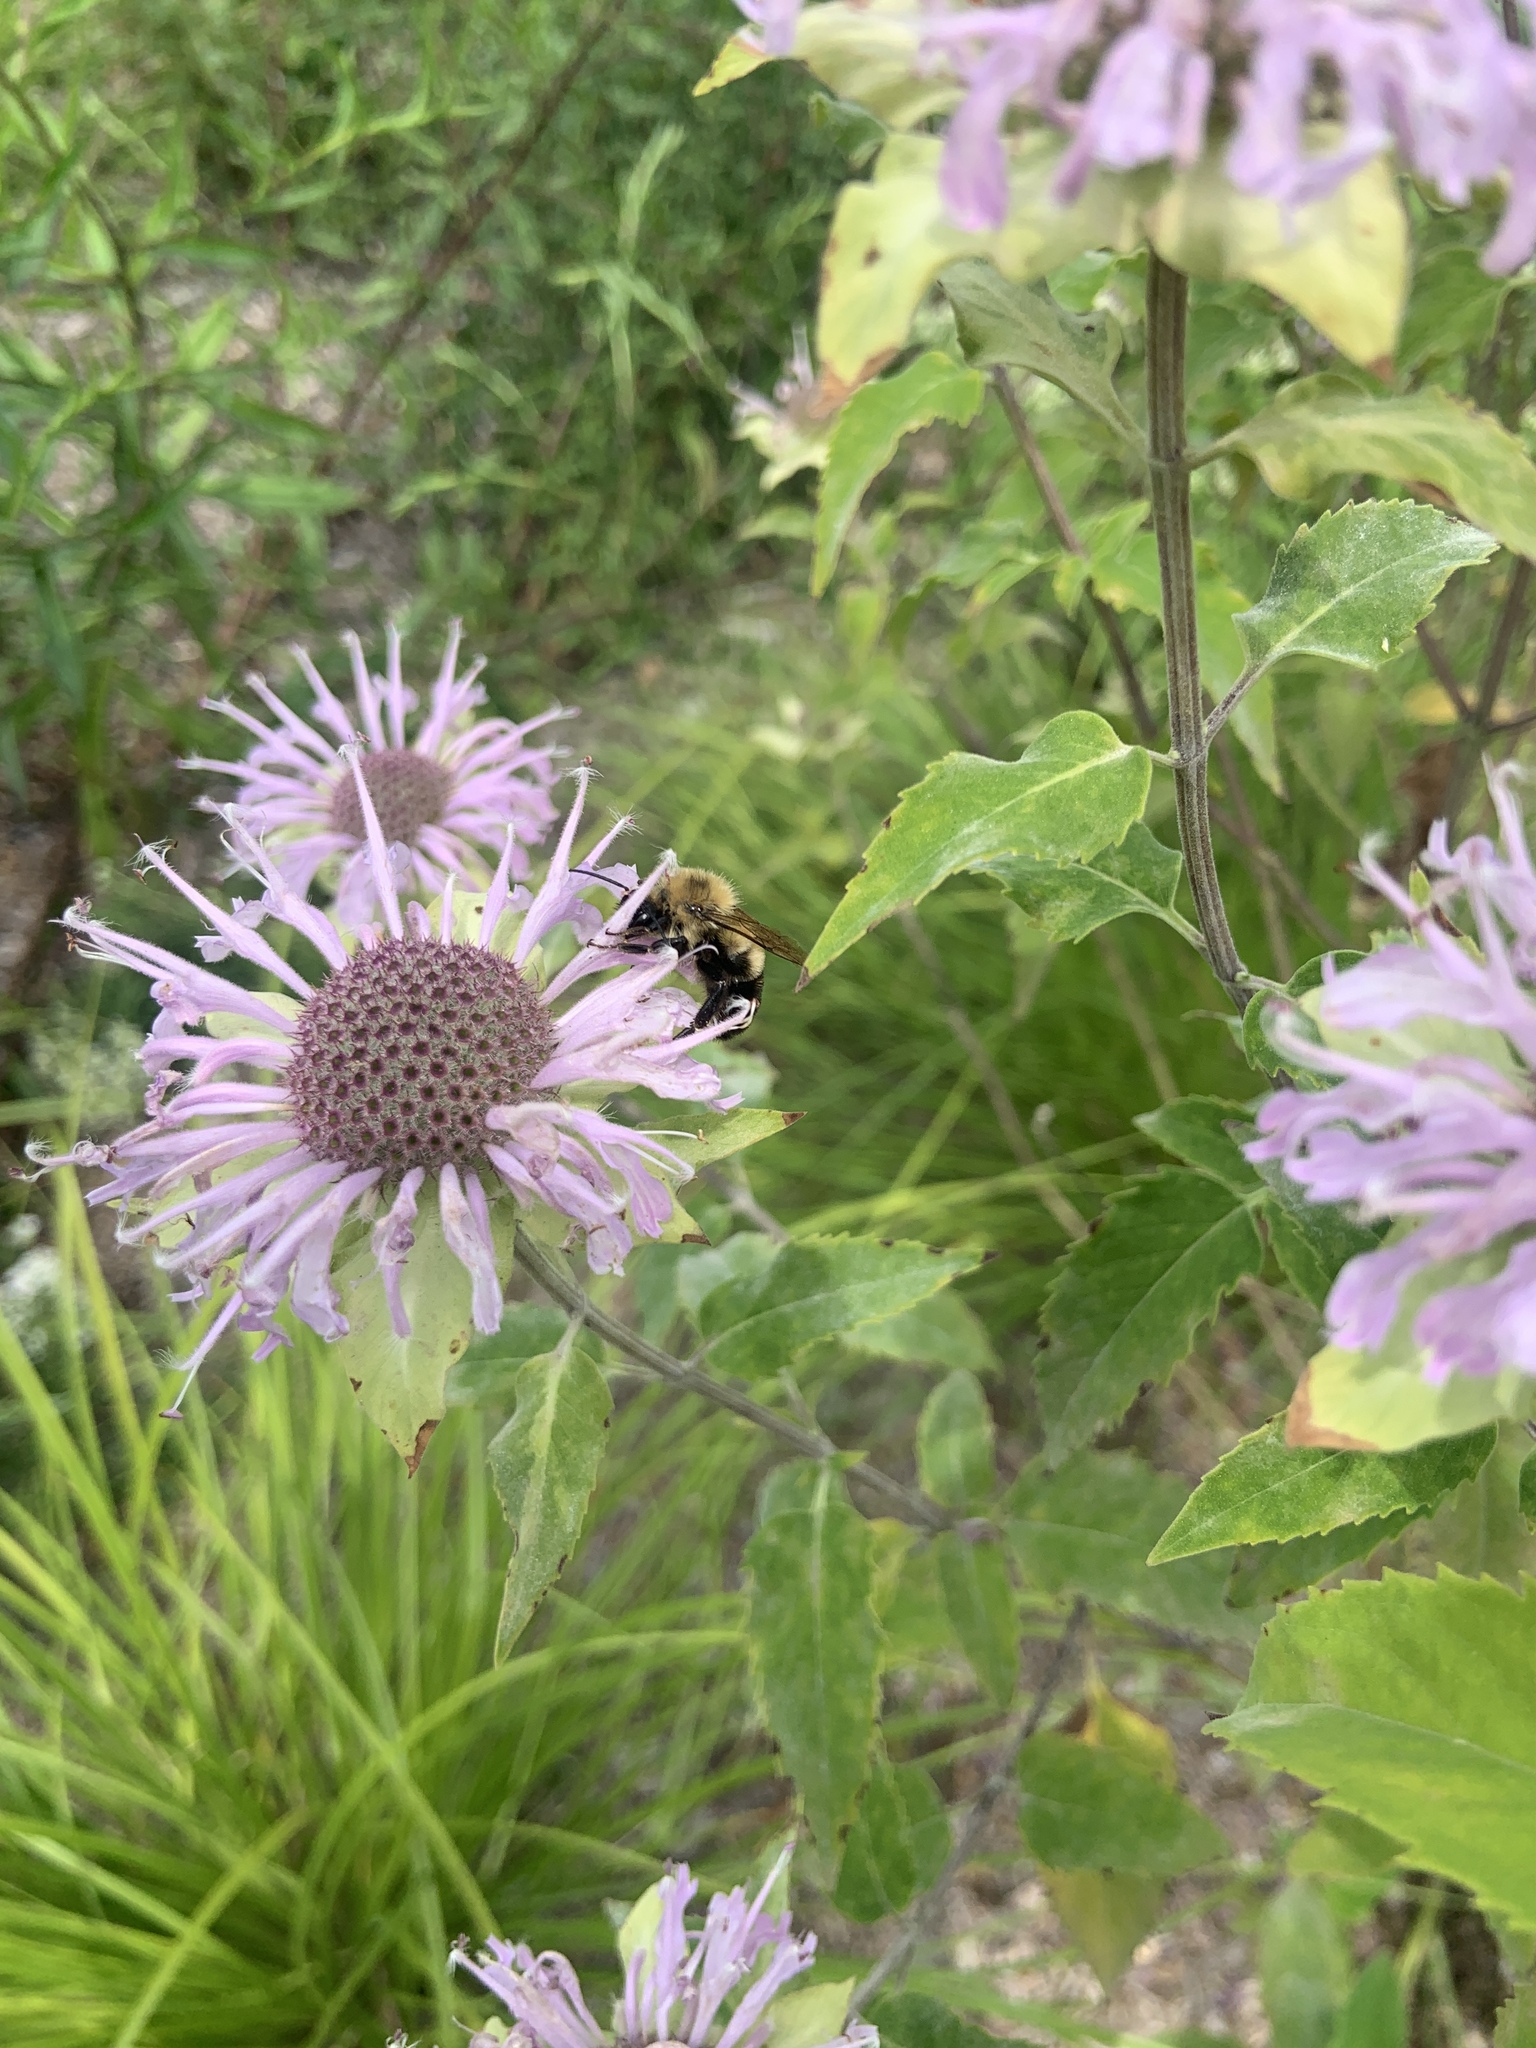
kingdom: Animalia
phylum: Arthropoda
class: Insecta
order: Hymenoptera
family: Apidae
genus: Bombus
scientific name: Bombus bimaculatus
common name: Two-spotted bumble bee
